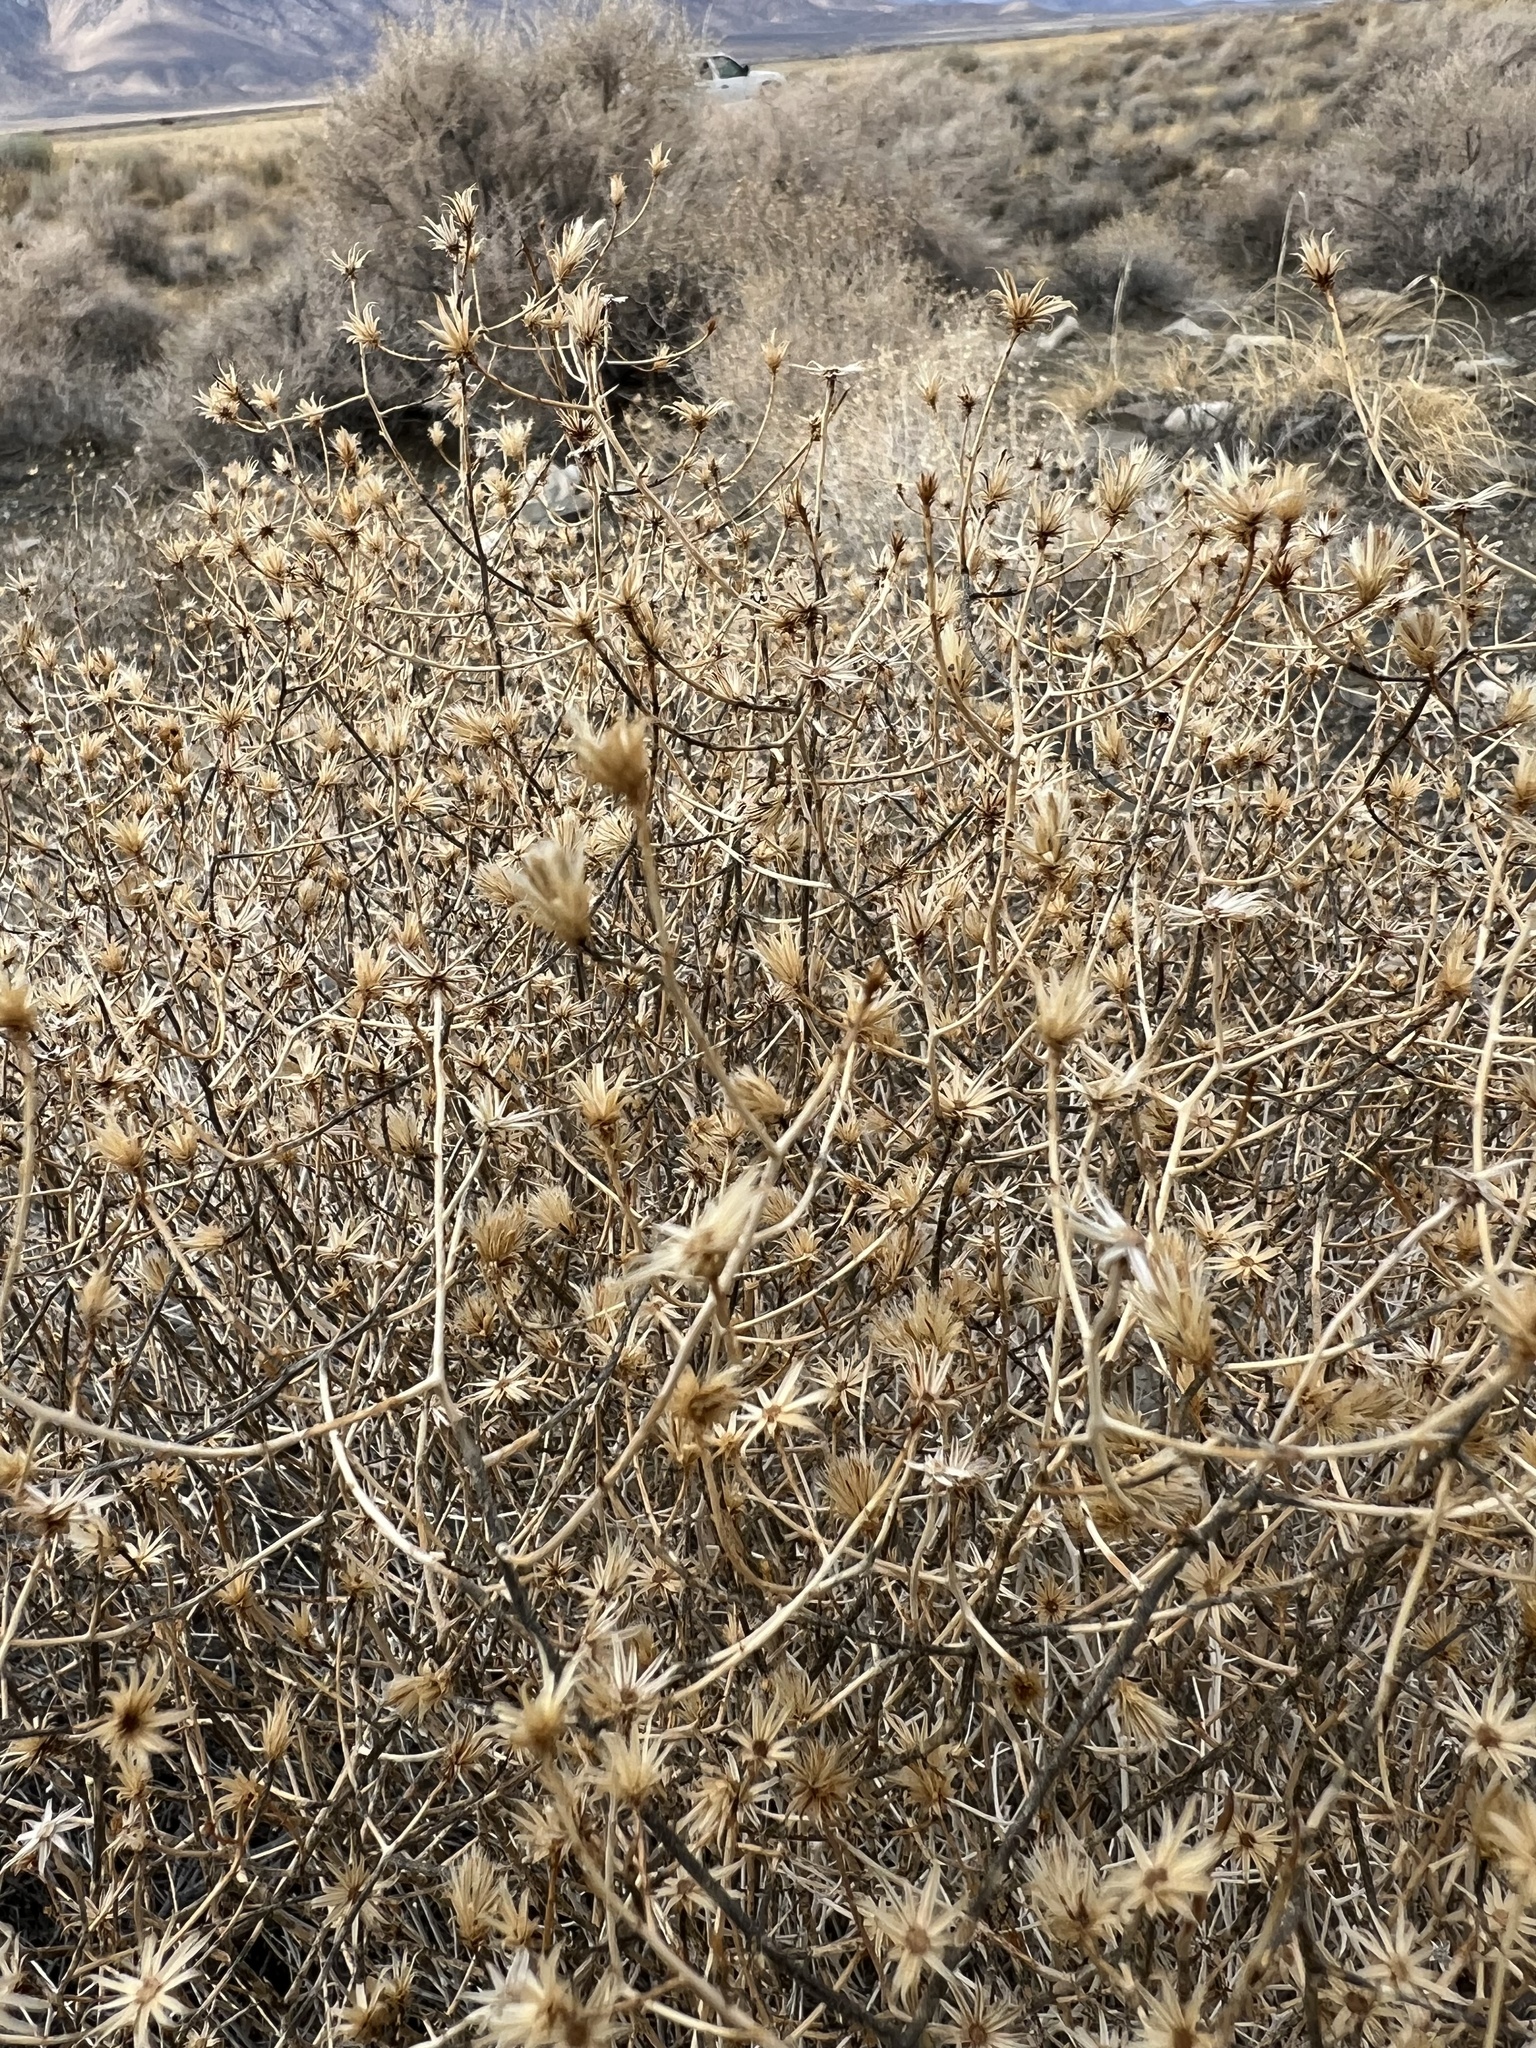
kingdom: Plantae
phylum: Tracheophyta
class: Magnoliopsida
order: Asterales
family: Asteraceae
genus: Leucosyris
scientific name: Leucosyris carnosa
